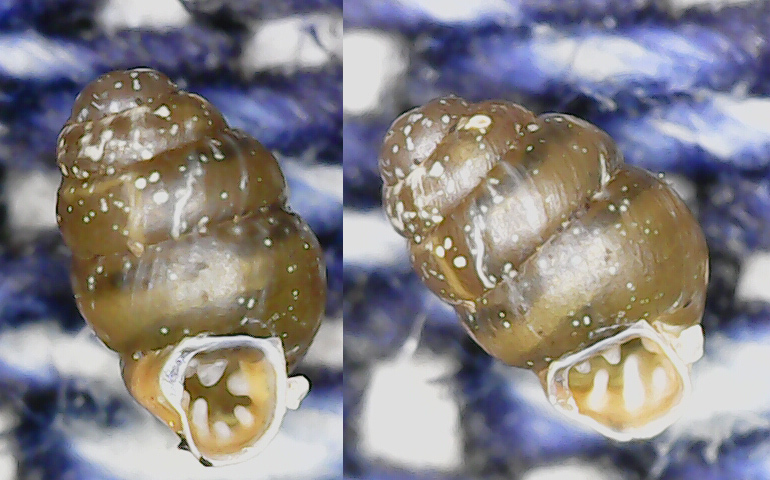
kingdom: Animalia
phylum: Mollusca
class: Gastropoda
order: Stylommatophora
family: Vertiginidae
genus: Vertigo
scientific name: Vertigo pusilla
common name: Wall whorl snail
